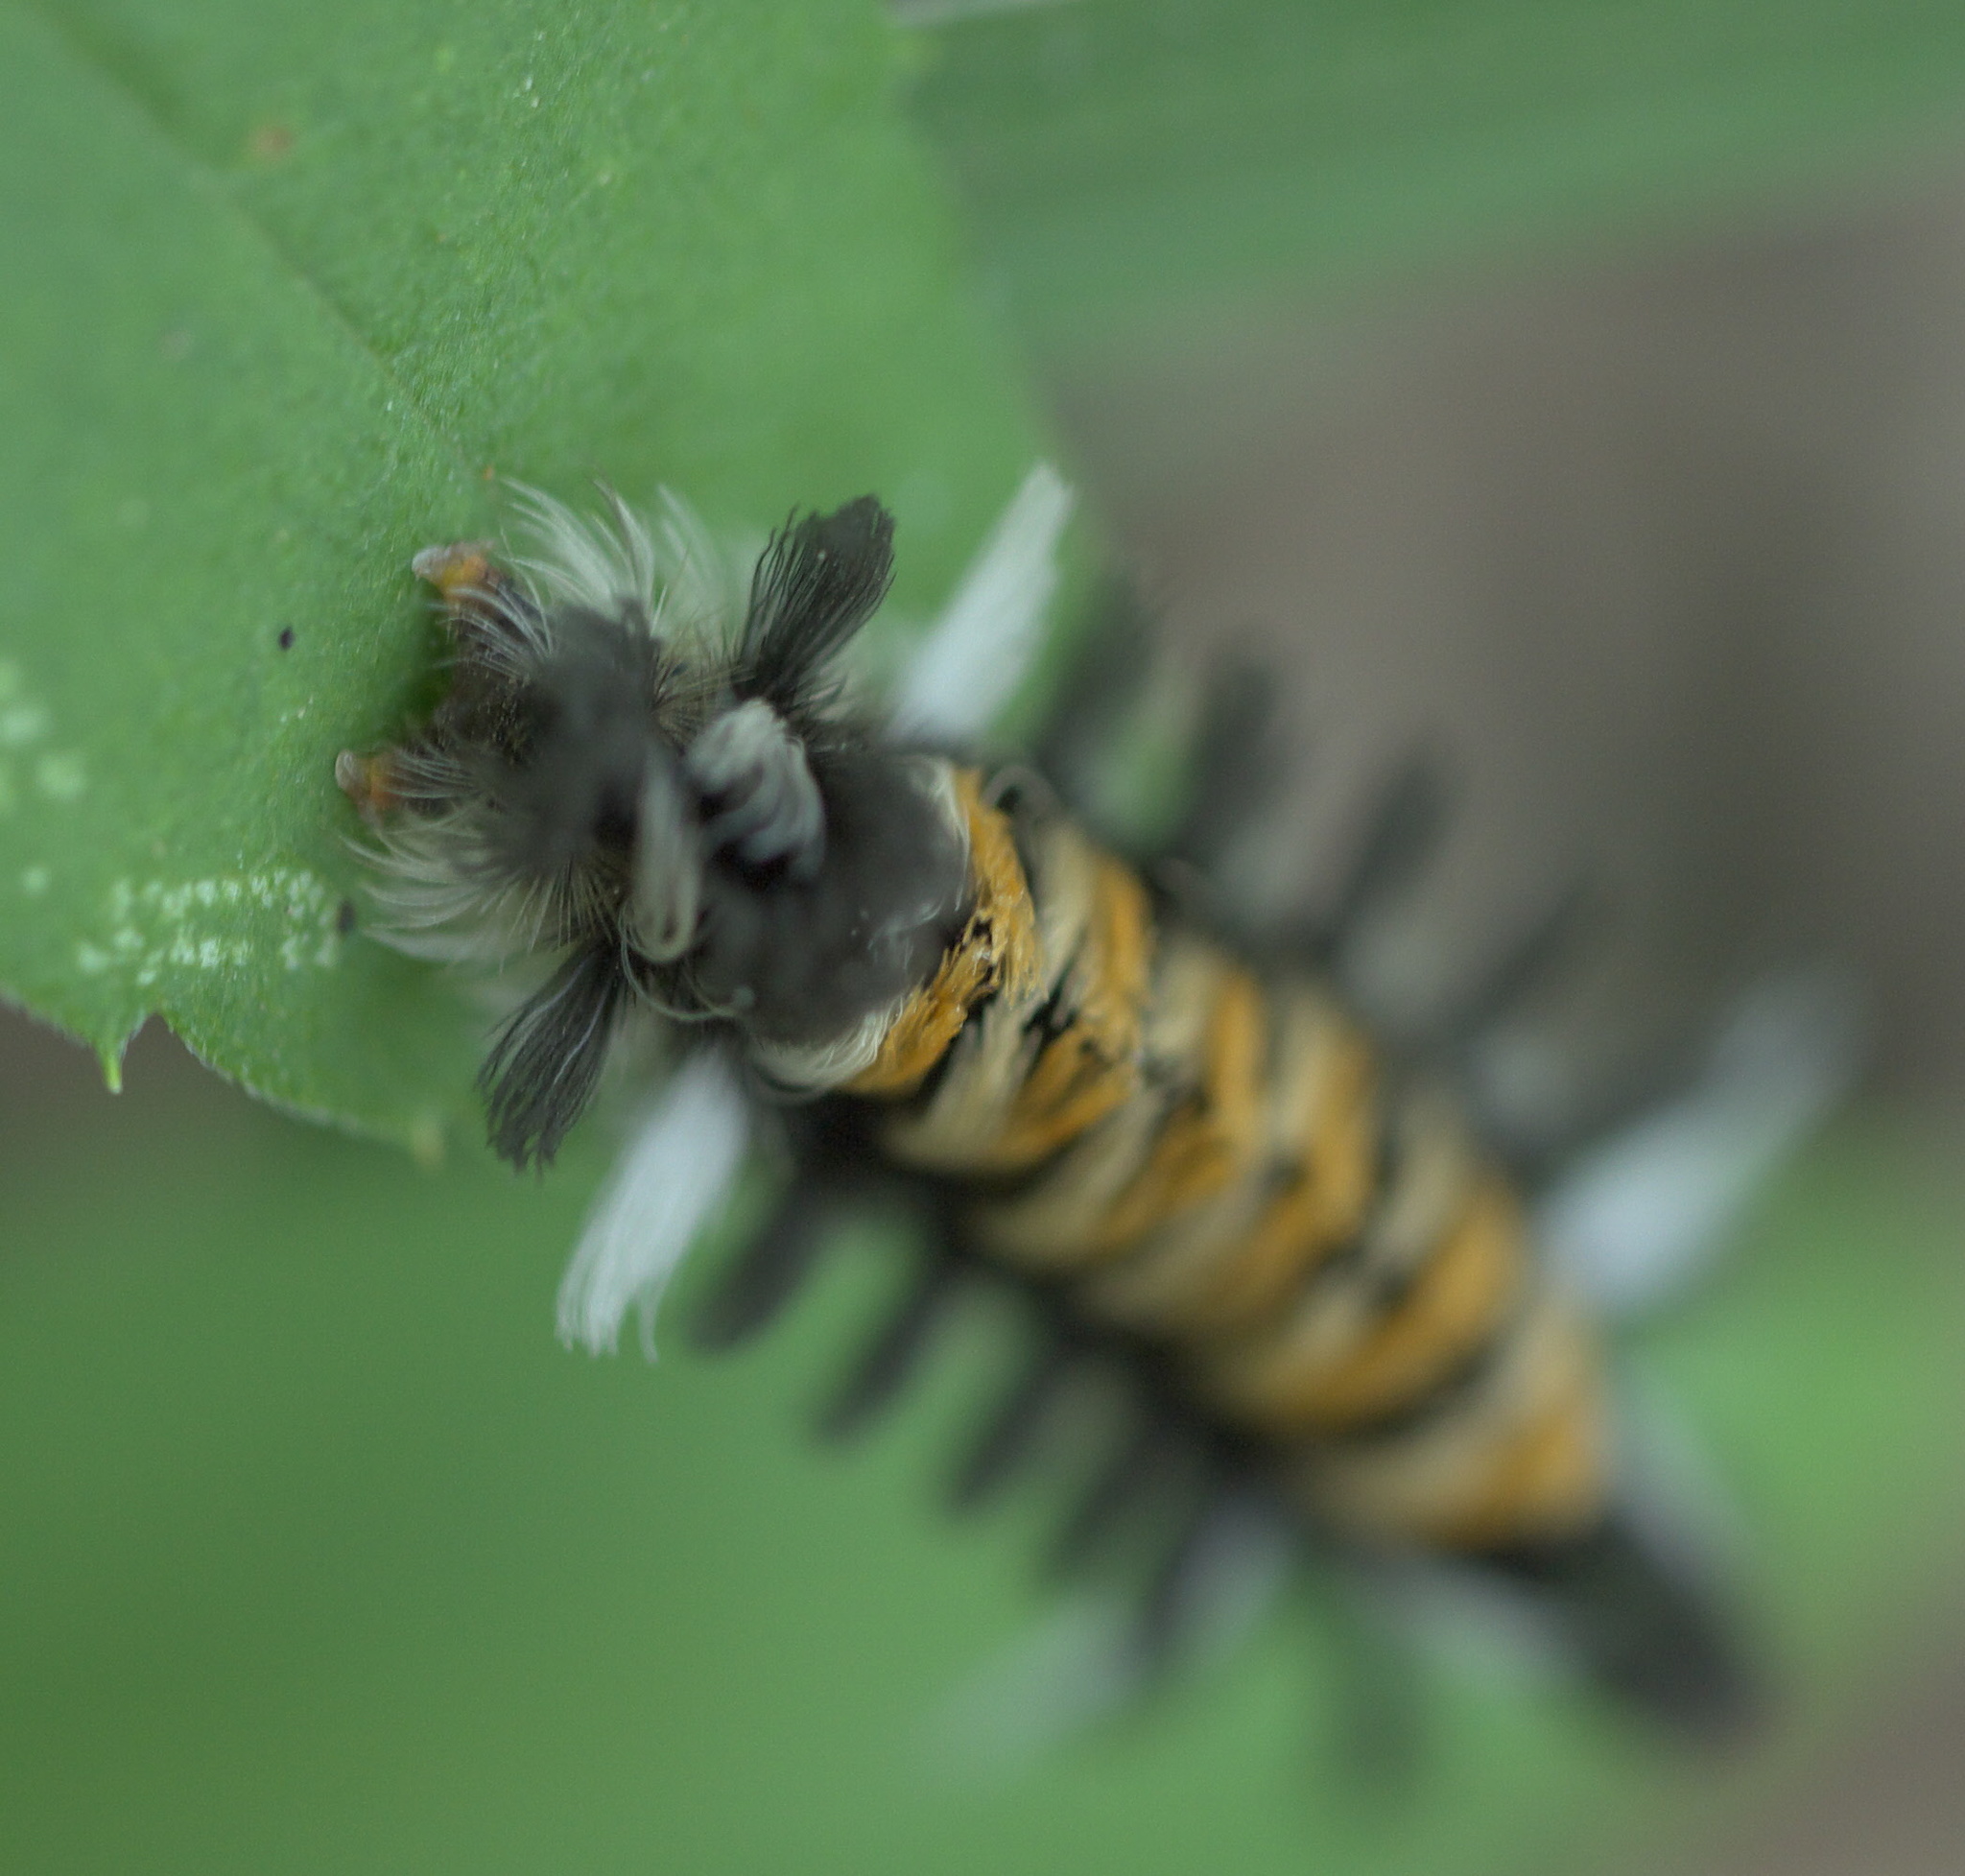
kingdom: Animalia
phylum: Arthropoda
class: Insecta
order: Lepidoptera
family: Erebidae
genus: Euchaetes
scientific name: Euchaetes egle
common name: Milkweed tussock moth
